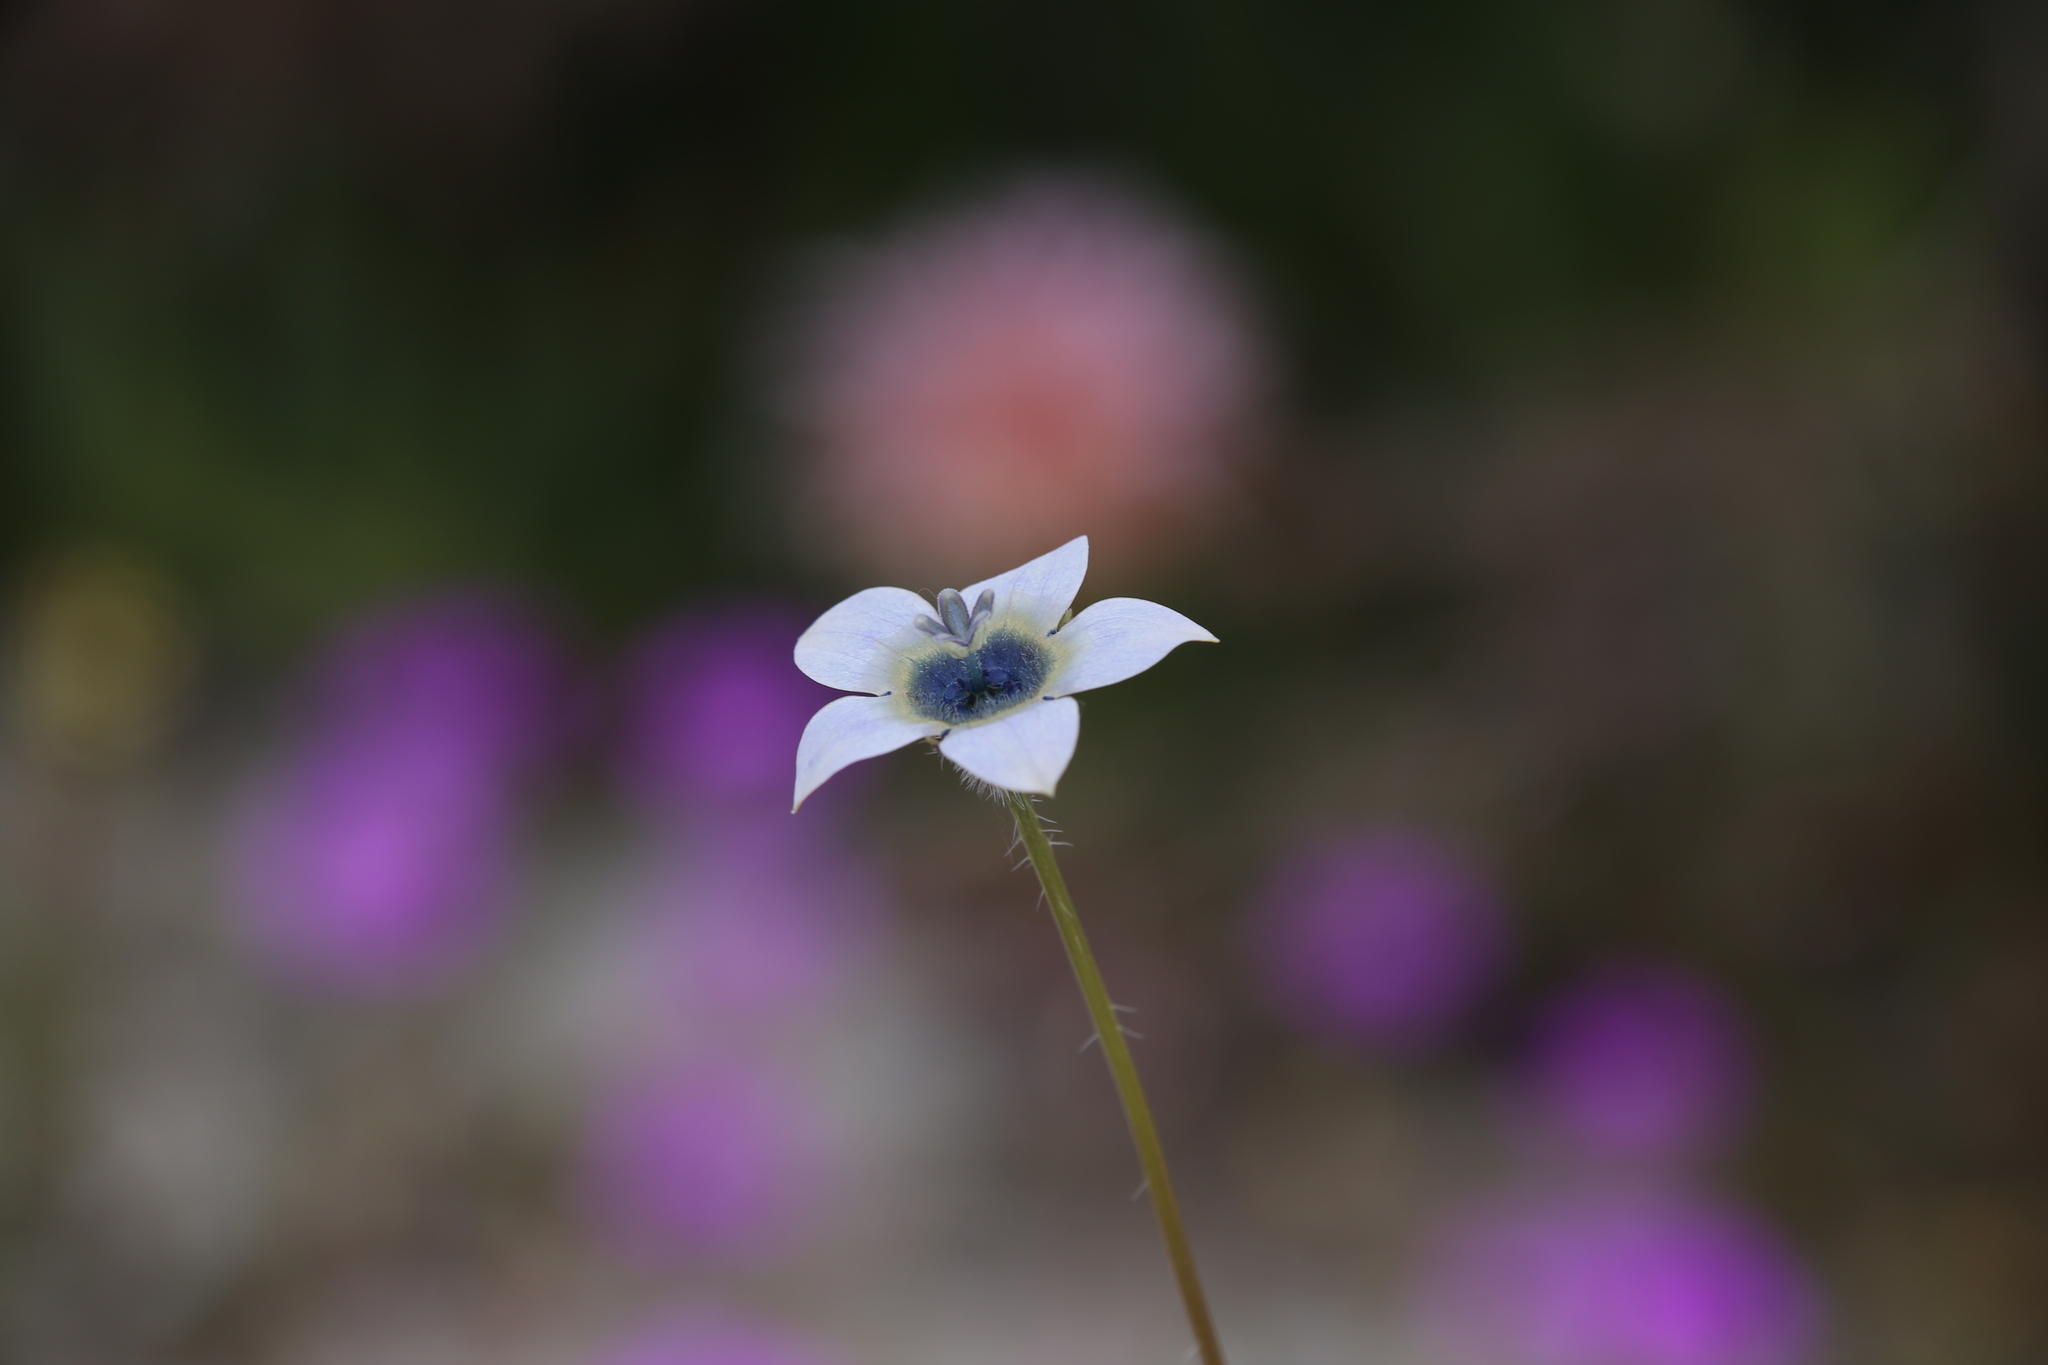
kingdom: Plantae
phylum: Tracheophyta
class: Magnoliopsida
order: Asterales
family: Campanulaceae
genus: Wahlenbergia
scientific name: Wahlenbergia capensis
